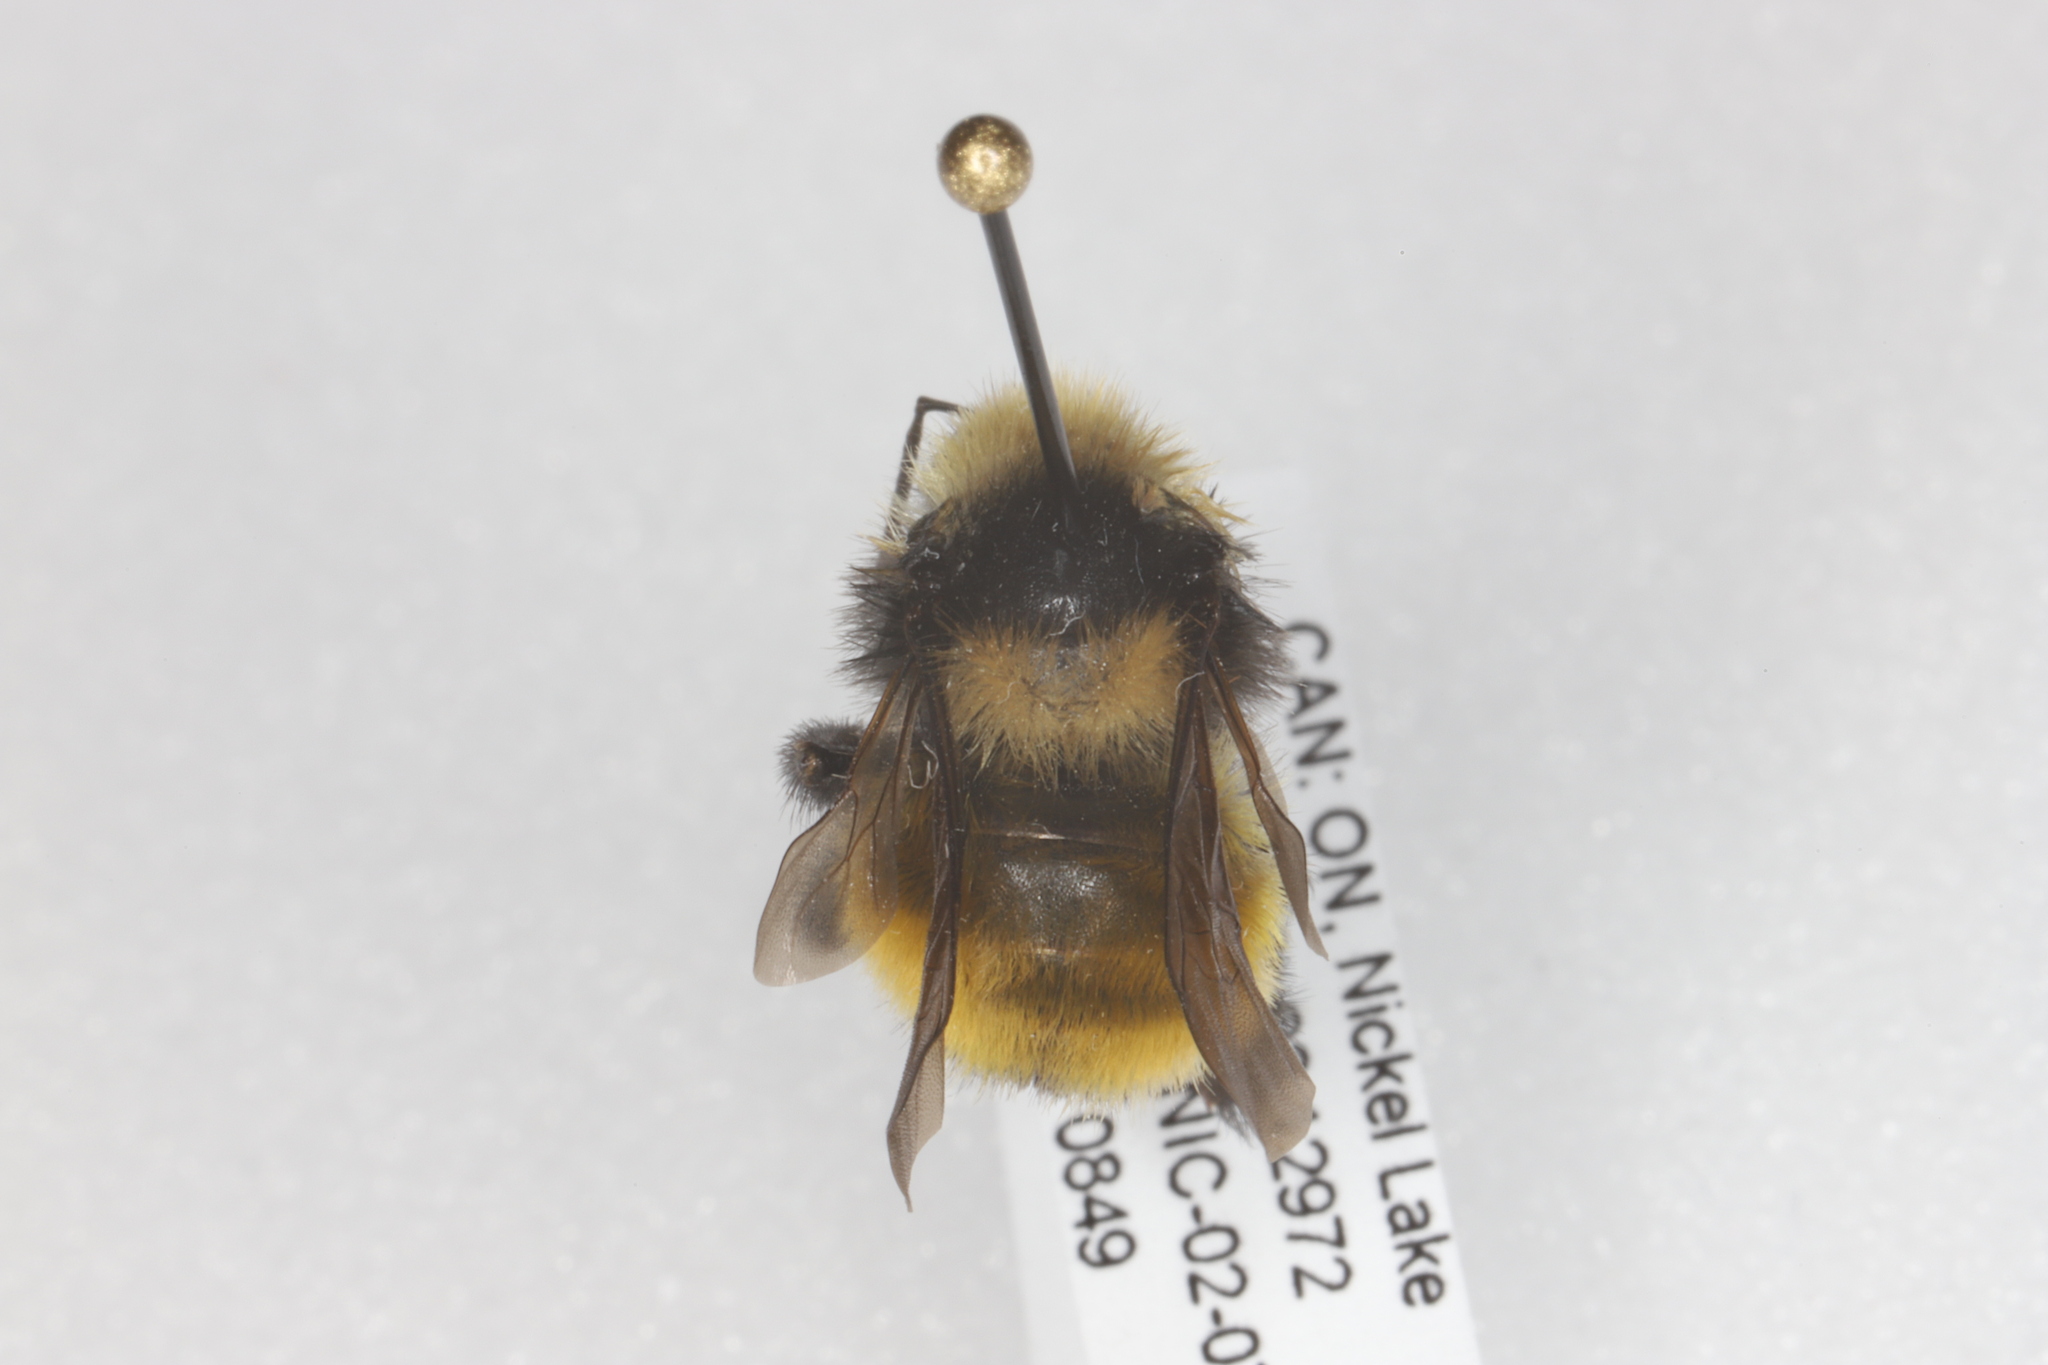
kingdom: Animalia
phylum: Arthropoda
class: Insecta
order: Hymenoptera
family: Apidae
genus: Bombus
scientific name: Bombus borealis
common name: Northern amber bumble bee
